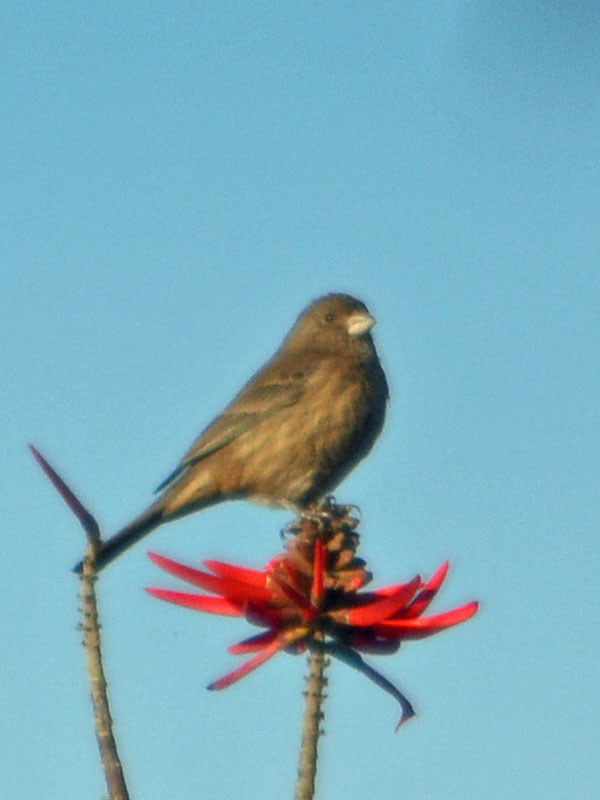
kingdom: Animalia
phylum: Chordata
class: Aves
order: Passeriformes
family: Fringillidae
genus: Haemorhous
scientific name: Haemorhous mexicanus
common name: House finch
